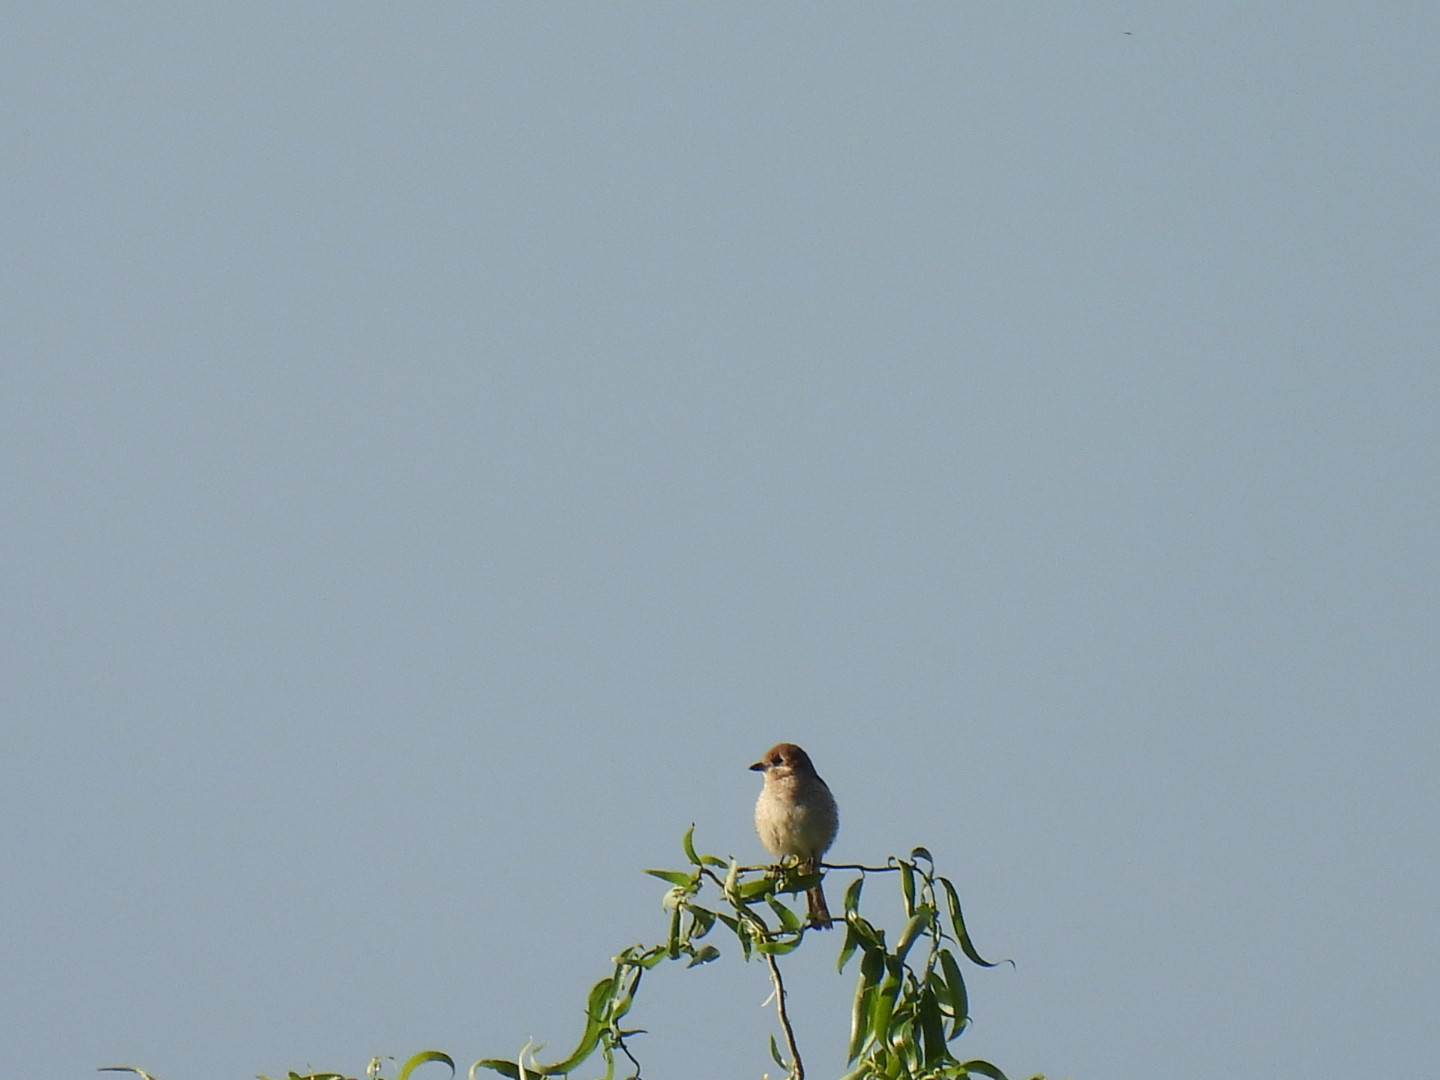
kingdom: Animalia
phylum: Chordata
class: Aves
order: Passeriformes
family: Laniidae
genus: Lanius
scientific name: Lanius collurio
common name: Red-backed shrike
